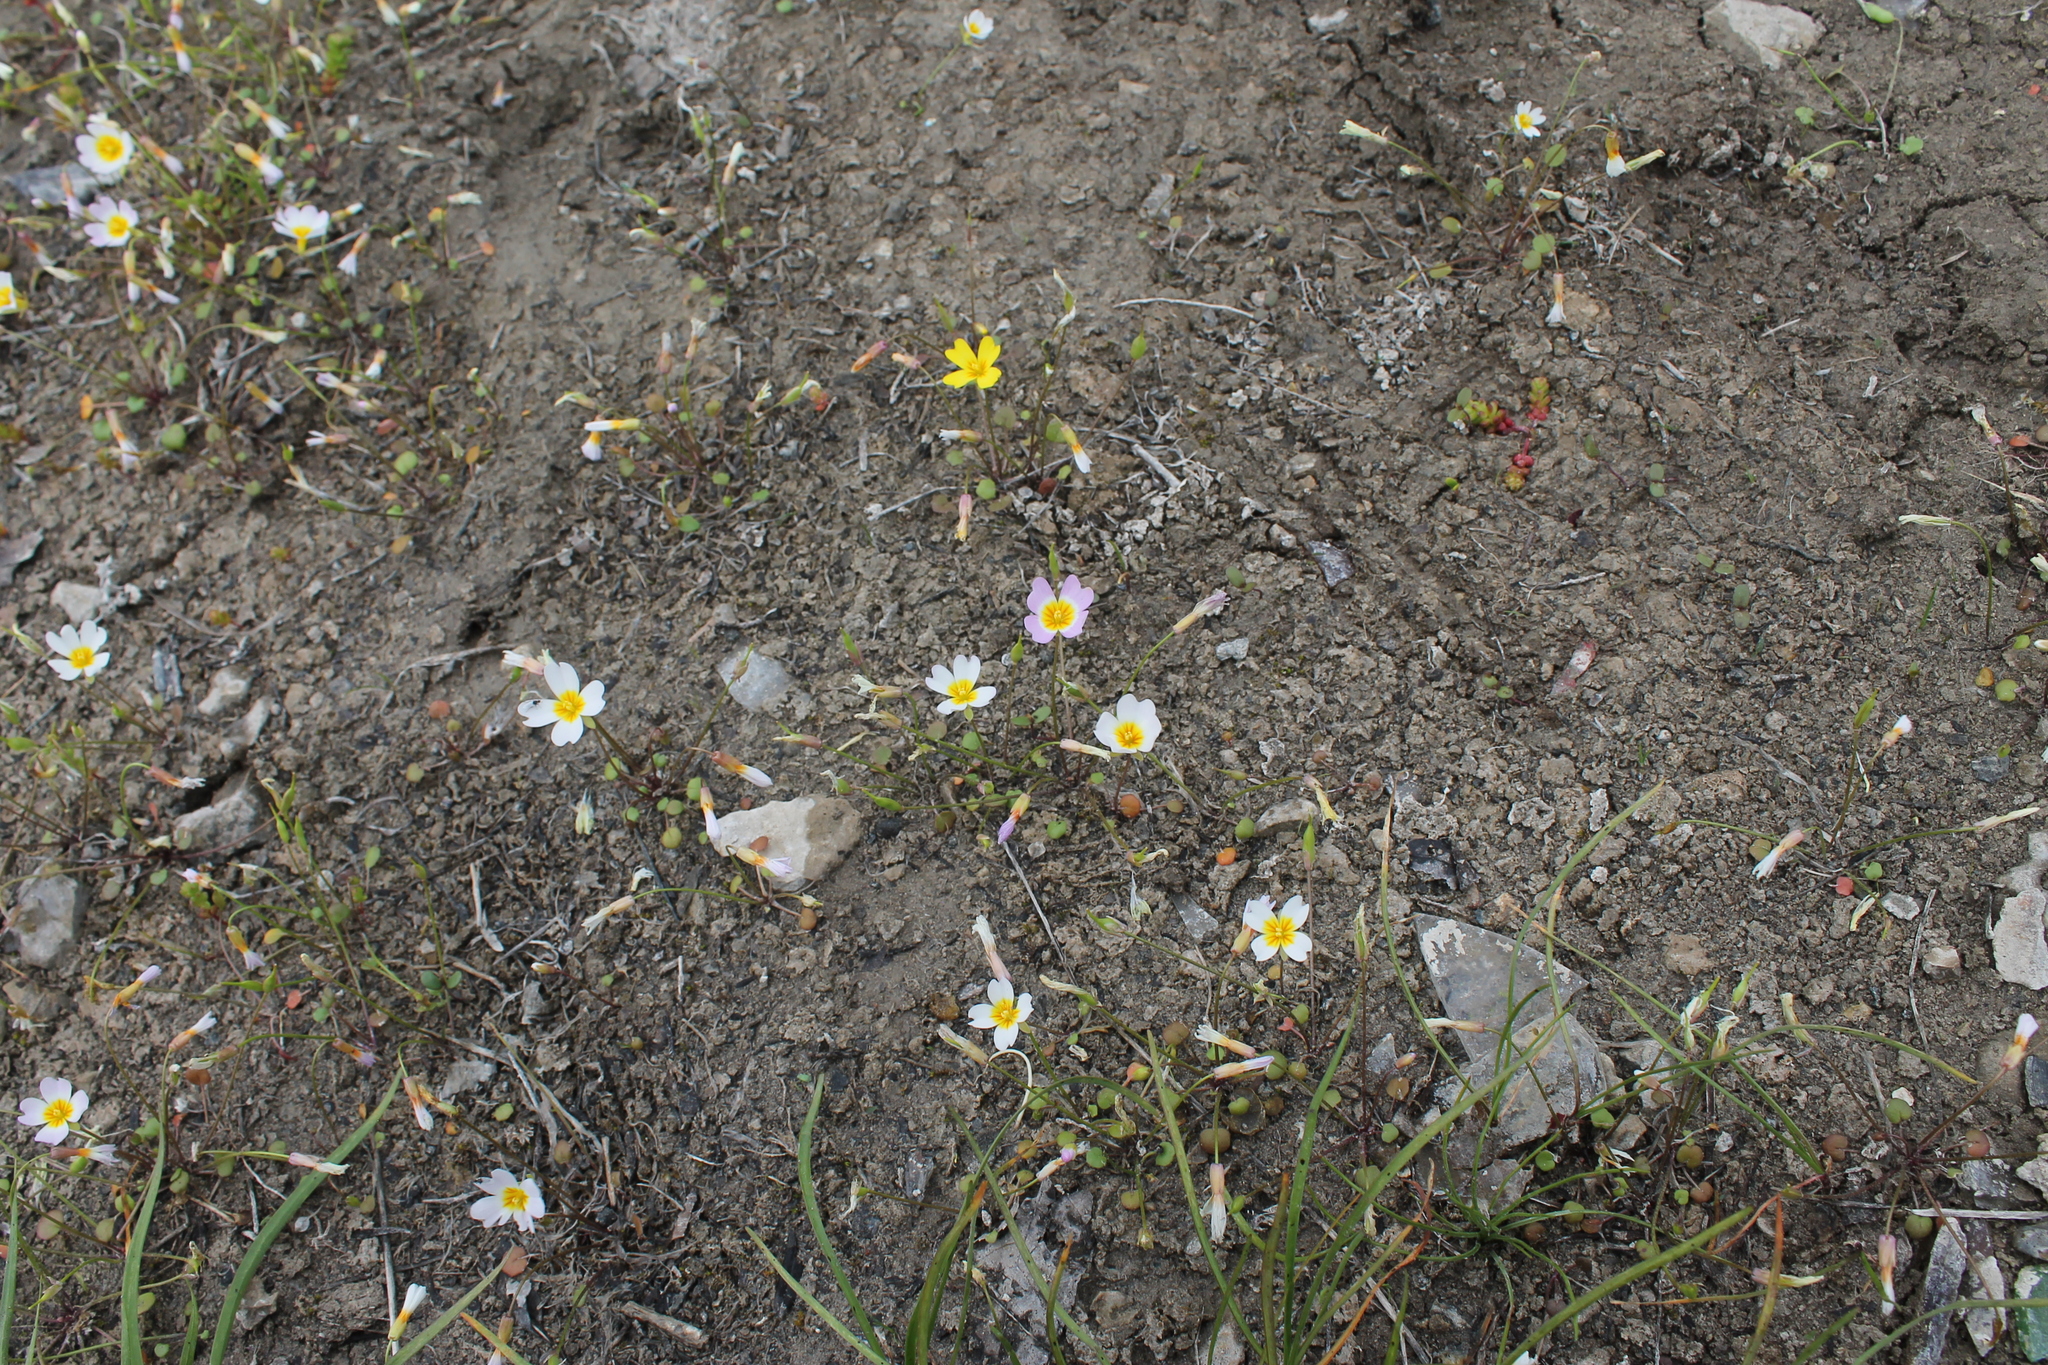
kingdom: Plantae
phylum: Tracheophyta
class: Magnoliopsida
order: Brassicales
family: Brassicaceae
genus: Leavenworthia
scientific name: Leavenworthia stylosa
